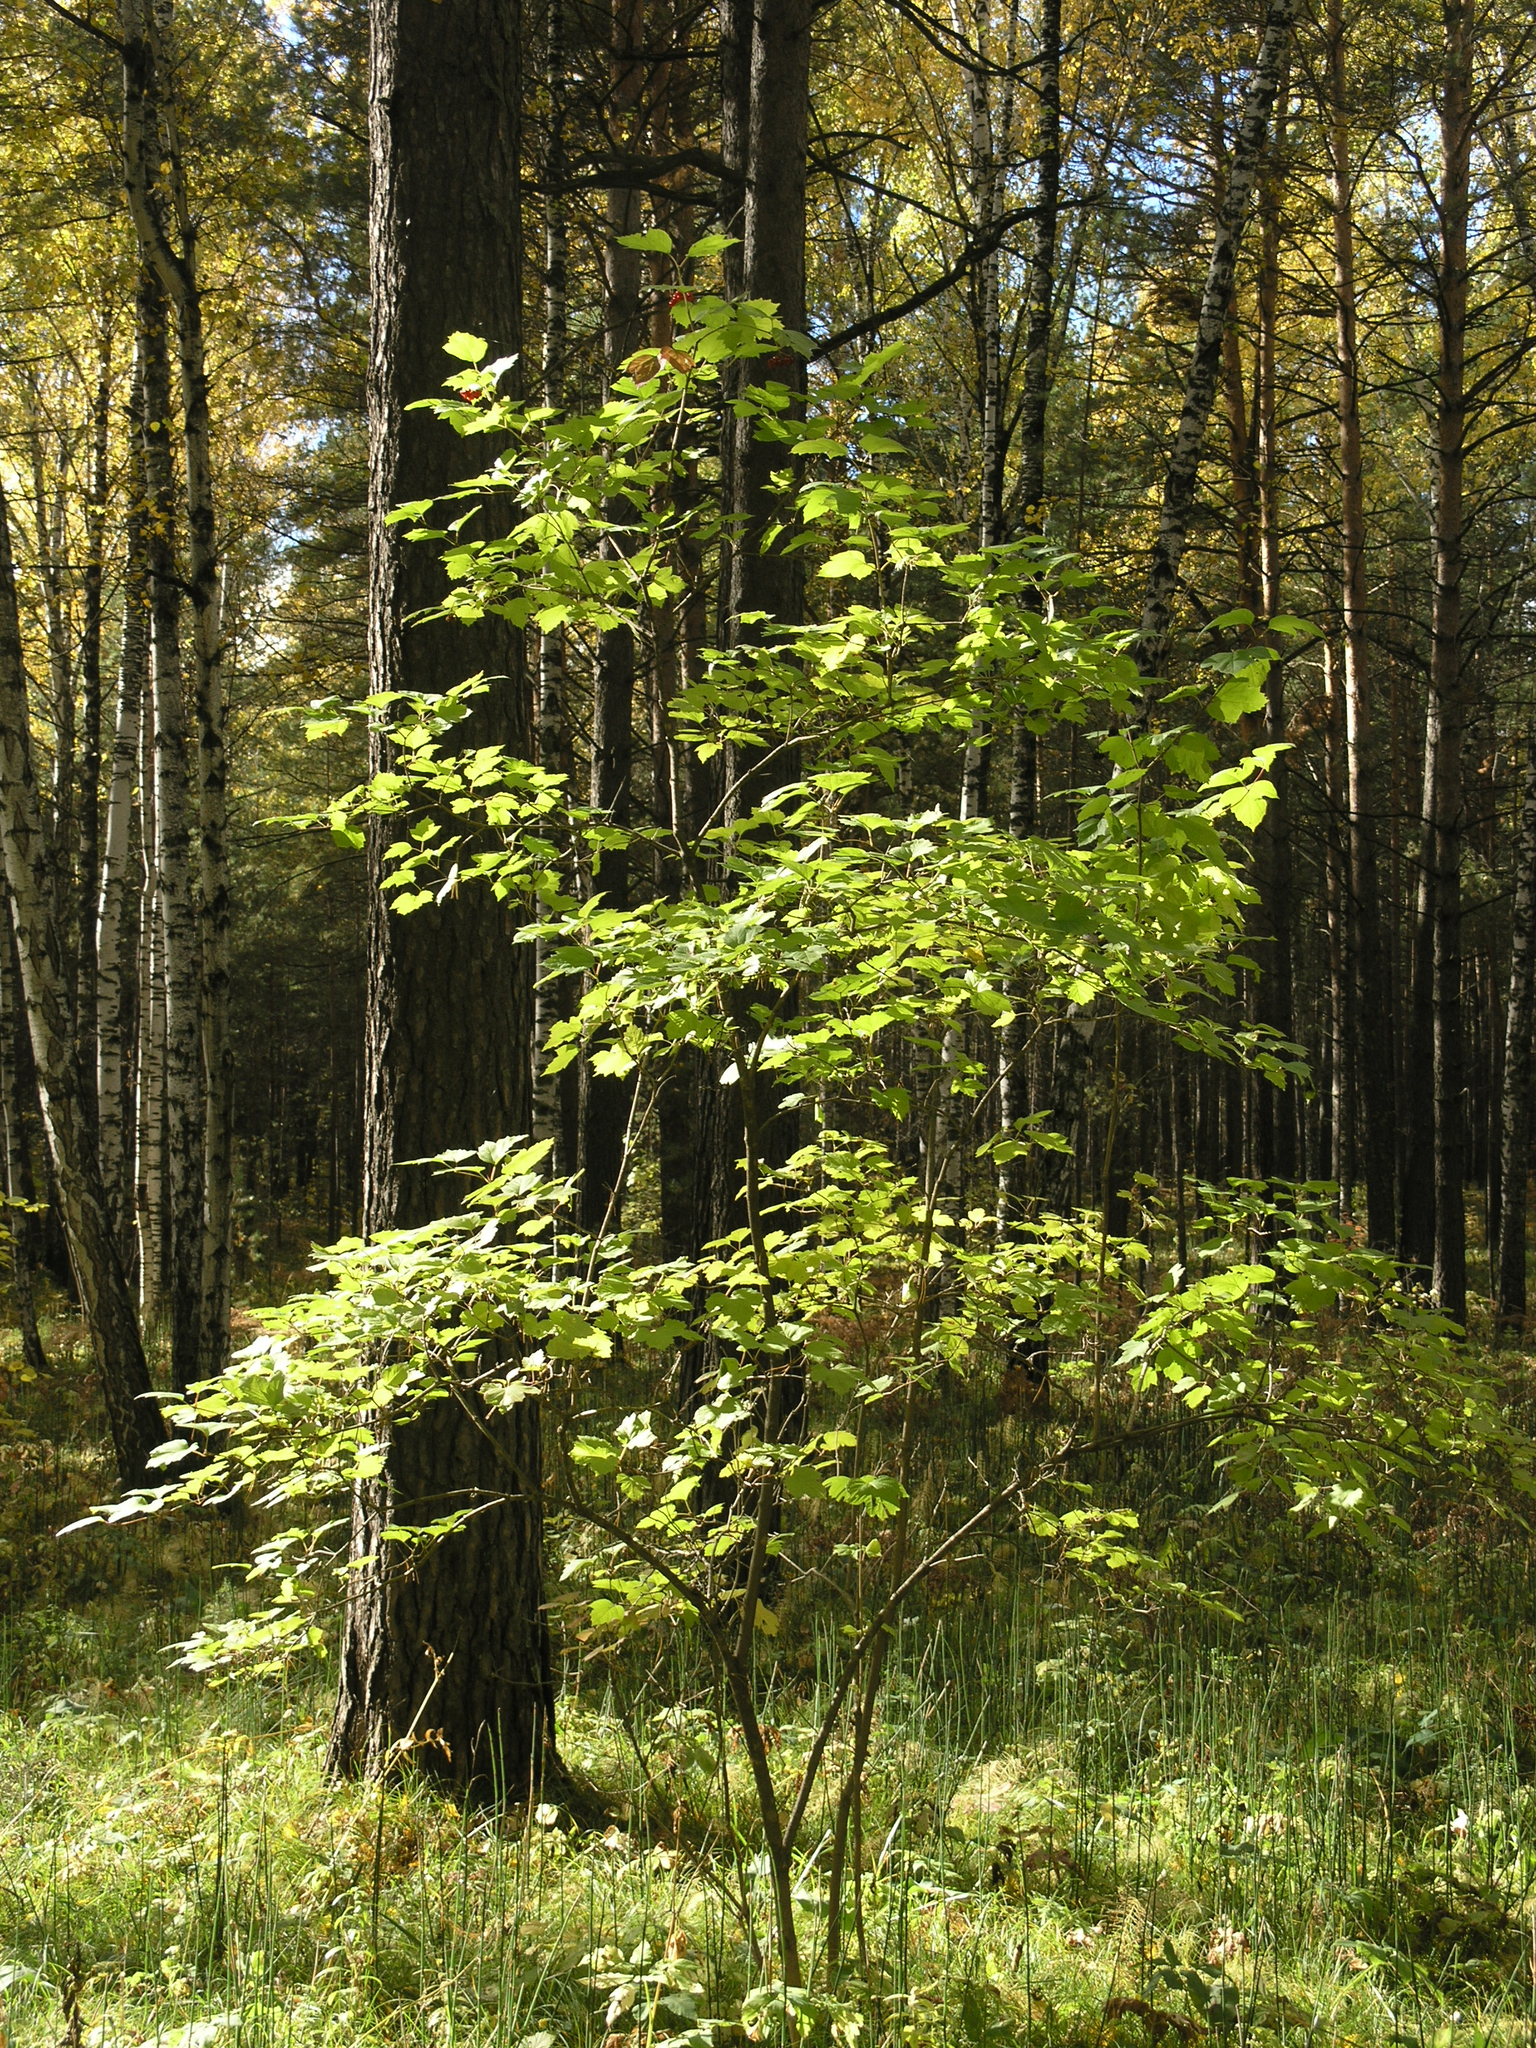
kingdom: Plantae
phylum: Tracheophyta
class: Magnoliopsida
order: Dipsacales
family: Viburnaceae
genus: Viburnum
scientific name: Viburnum opulus
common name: Guelder-rose
